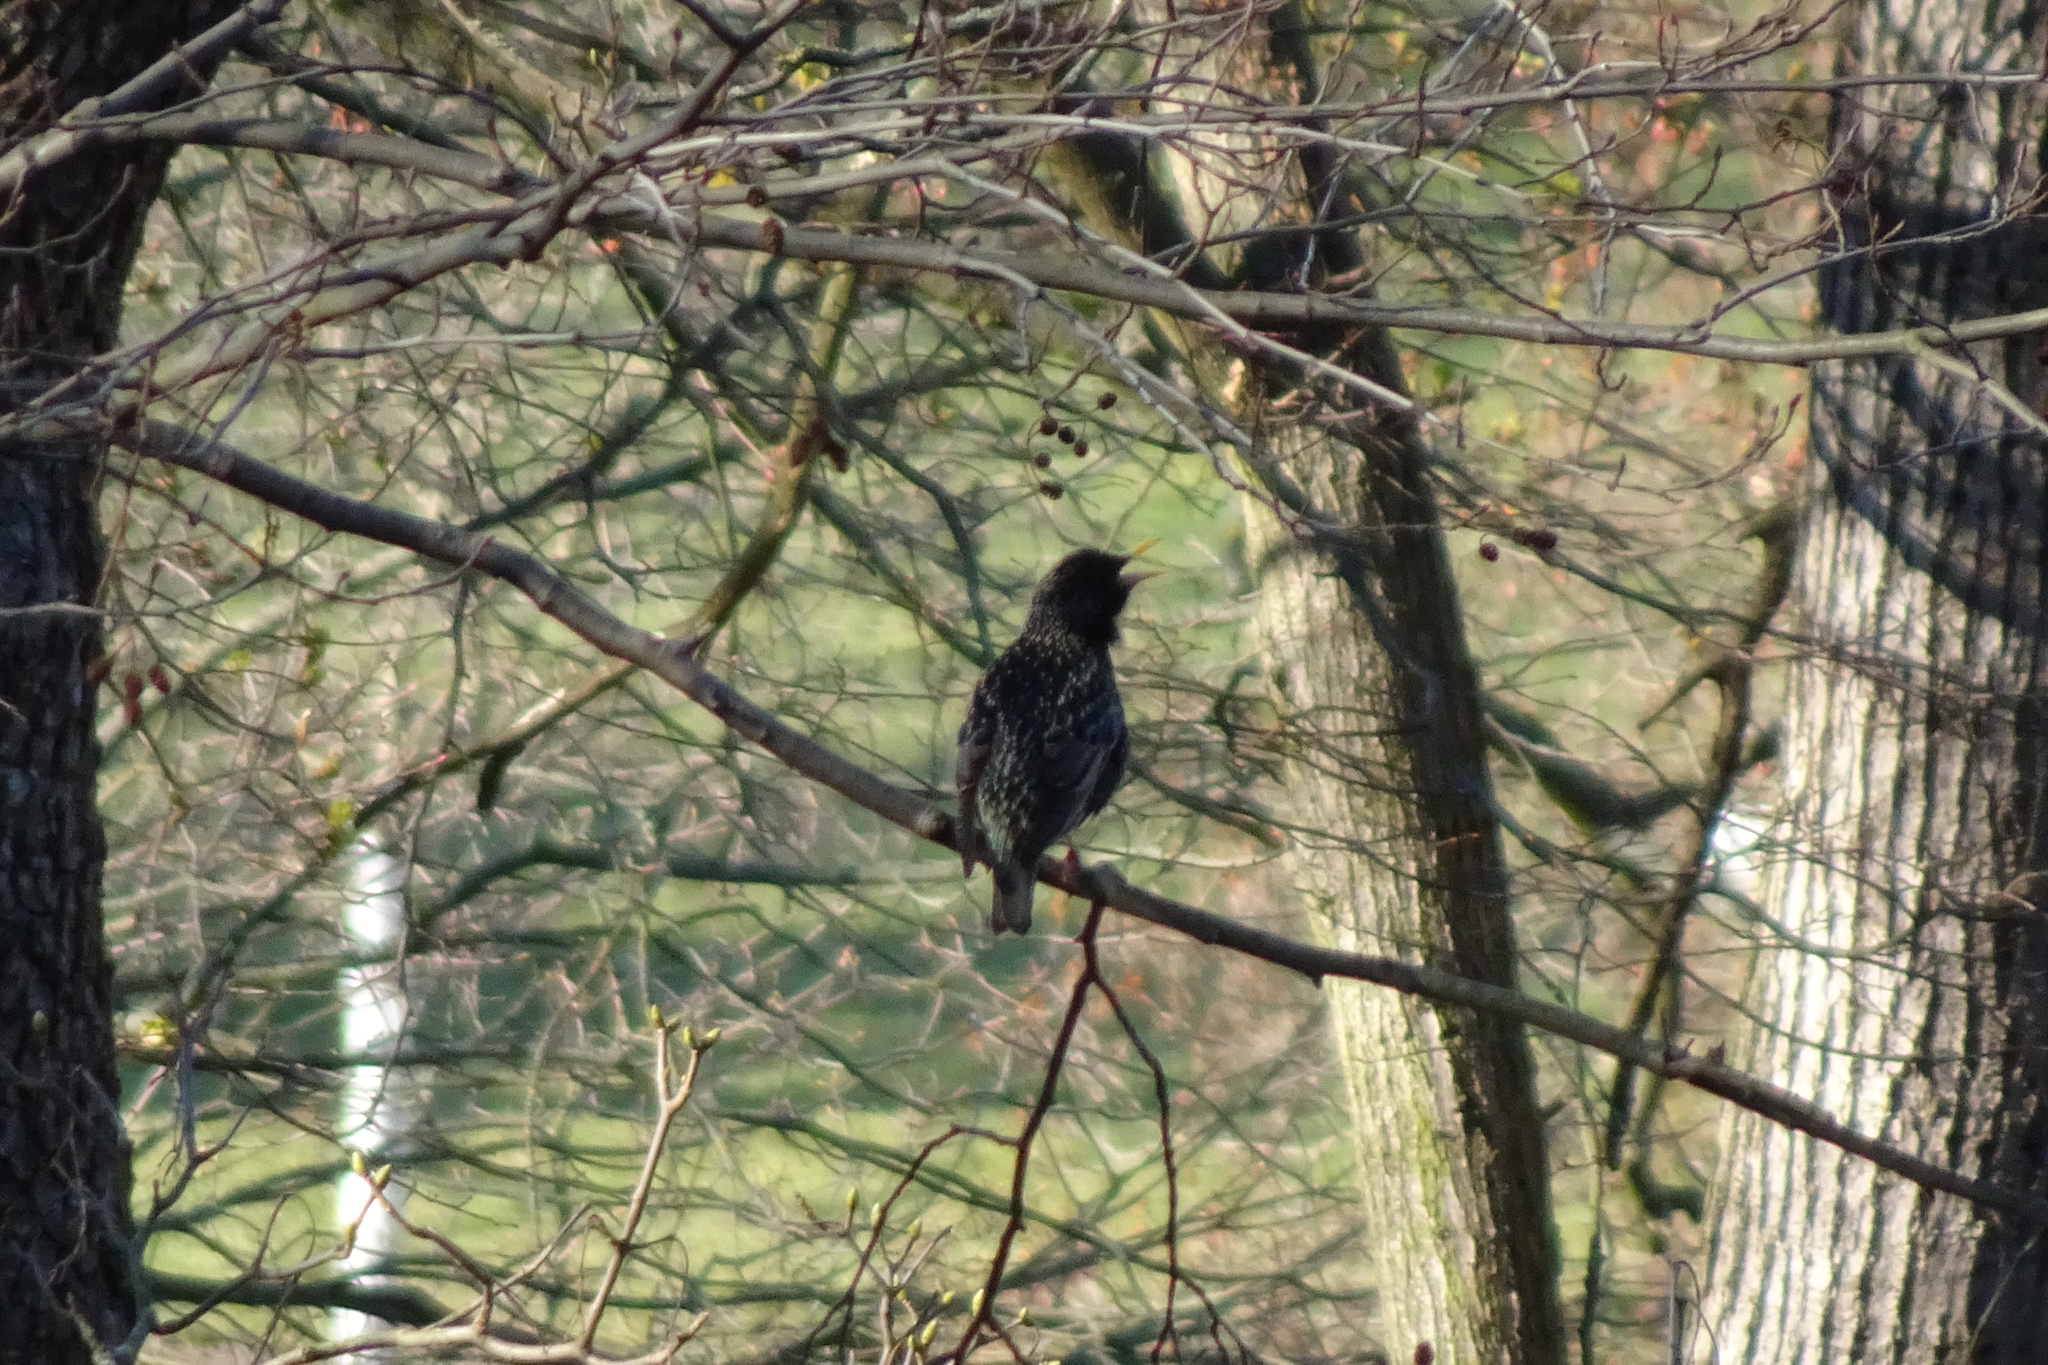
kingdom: Animalia
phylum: Chordata
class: Aves
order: Passeriformes
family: Sturnidae
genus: Sturnus
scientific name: Sturnus vulgaris
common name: Common starling
